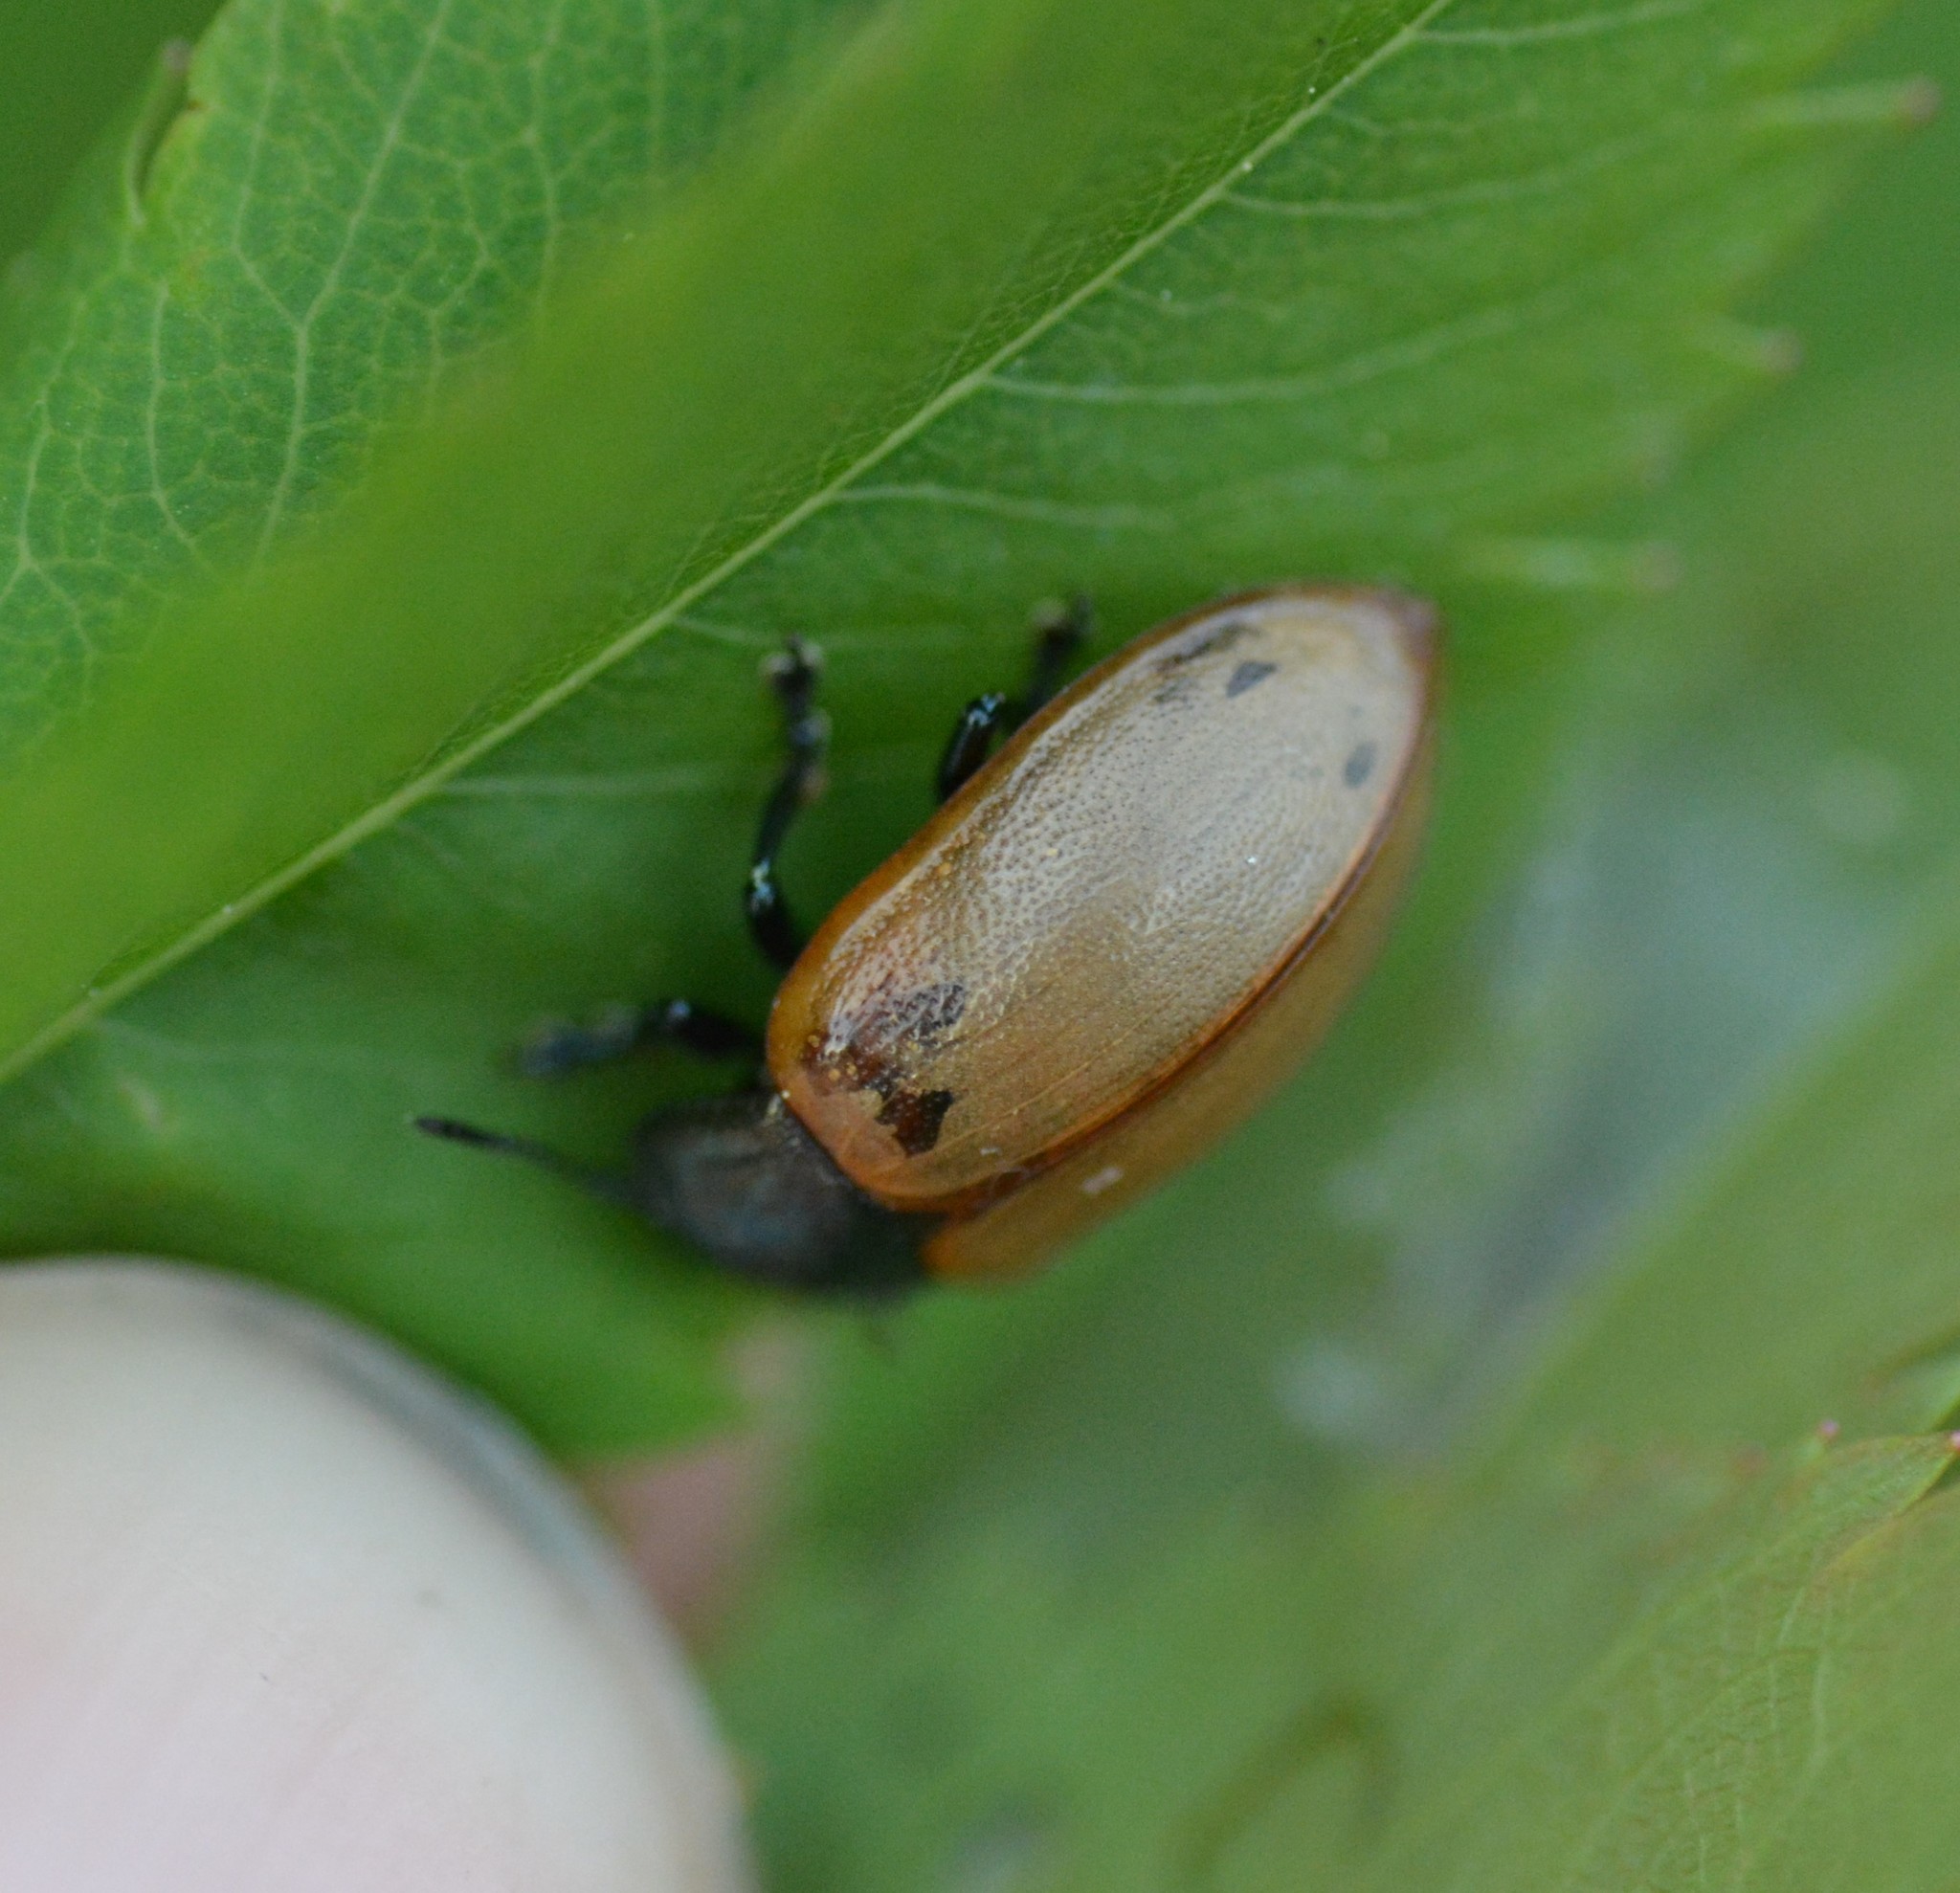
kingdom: Animalia
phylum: Arthropoda
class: Insecta
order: Coleoptera
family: Chrysomelidae
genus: Chrysomela
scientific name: Chrysomela crotchi
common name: Leaf beetle
